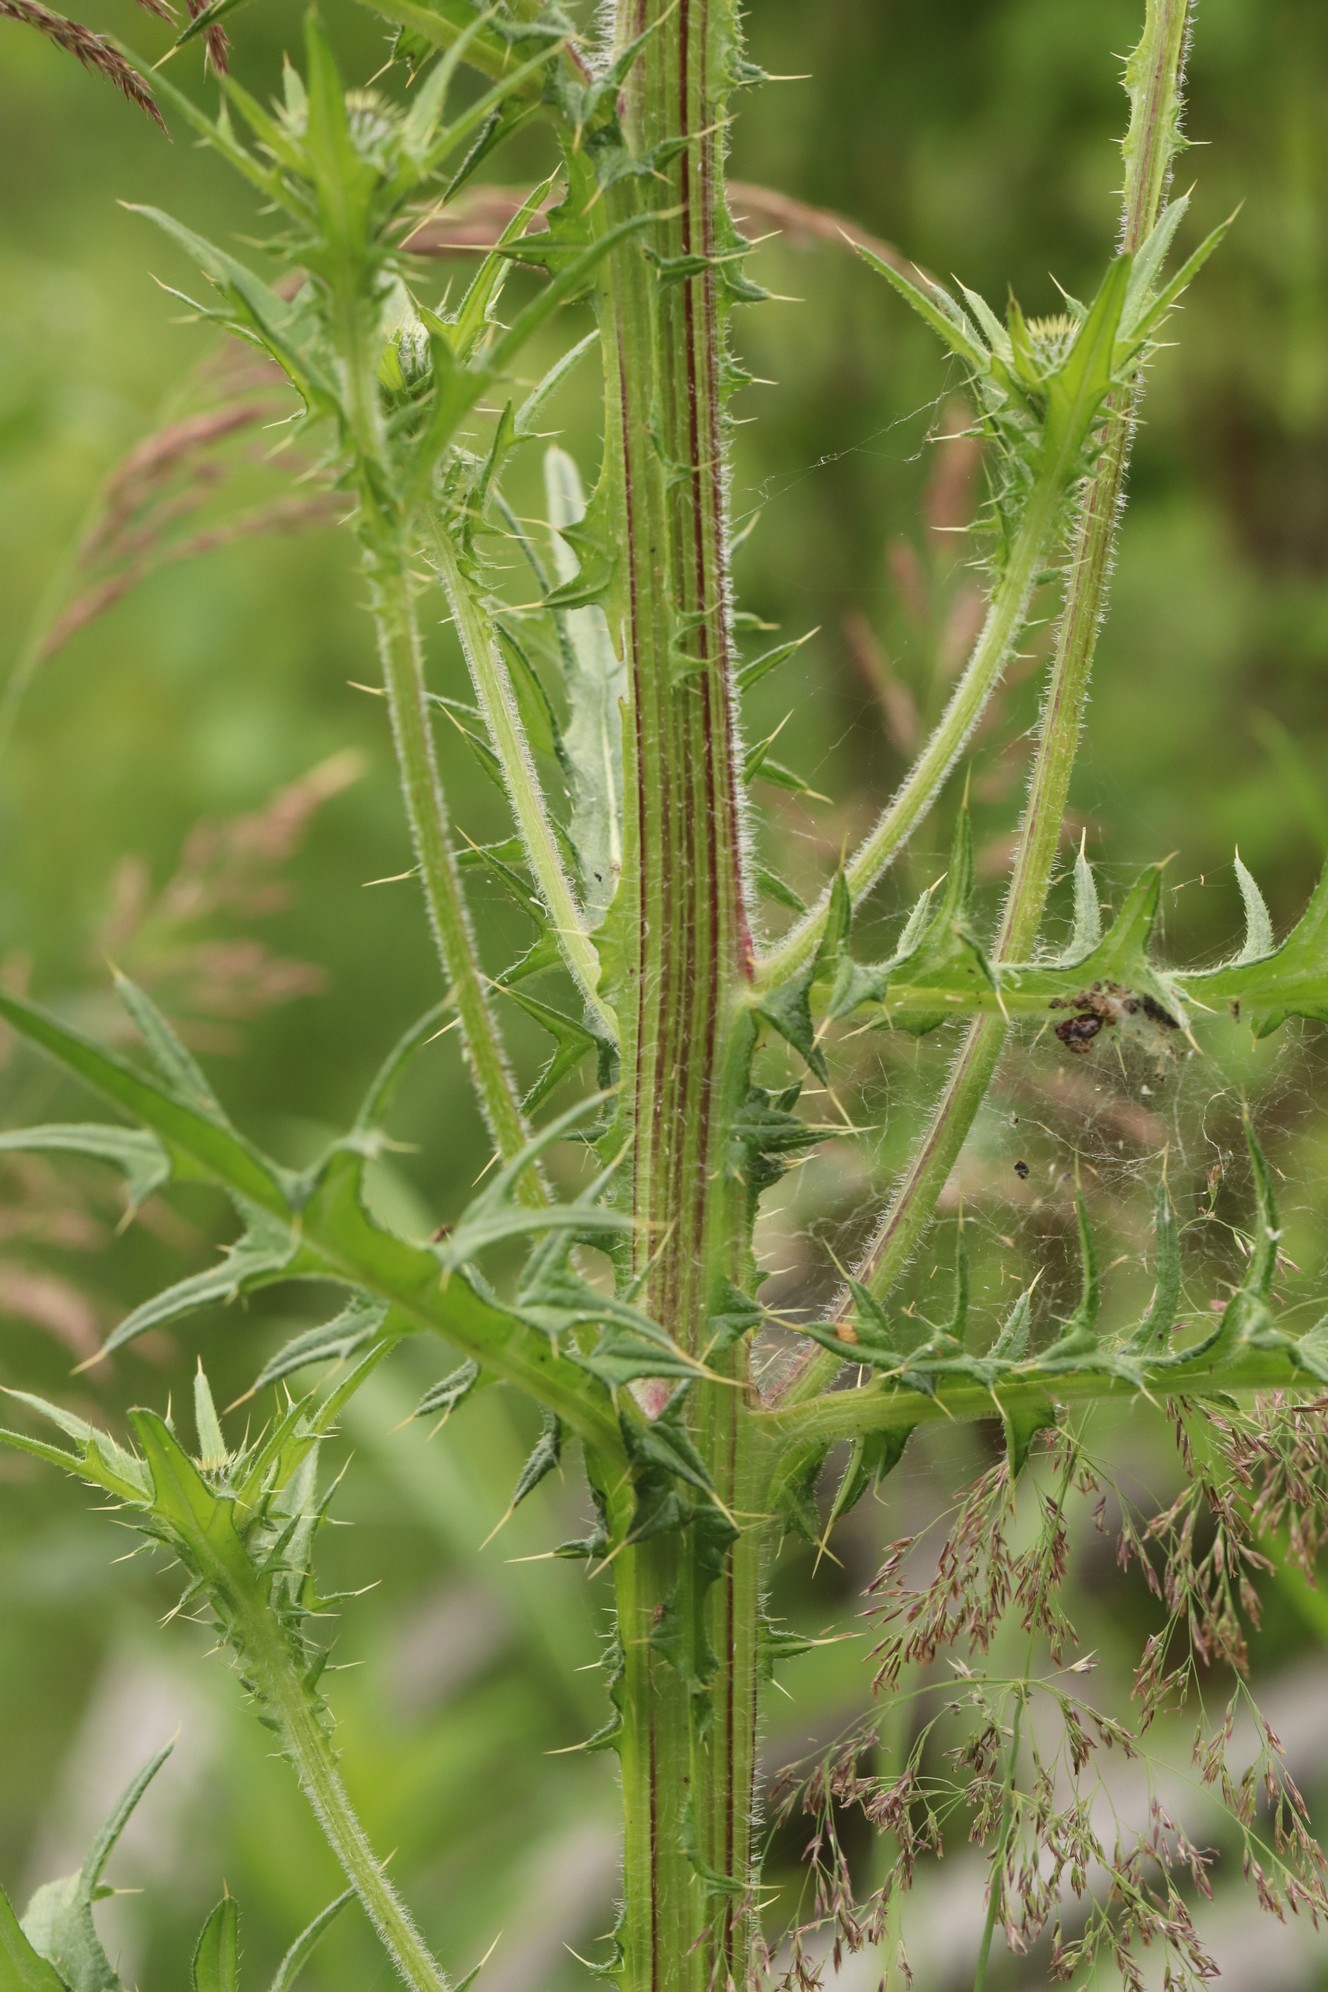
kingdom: Plantae
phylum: Tracheophyta
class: Magnoliopsida
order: Asterales
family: Asteraceae
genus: Cirsium
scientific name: Cirsium vulgare
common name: Bull thistle
